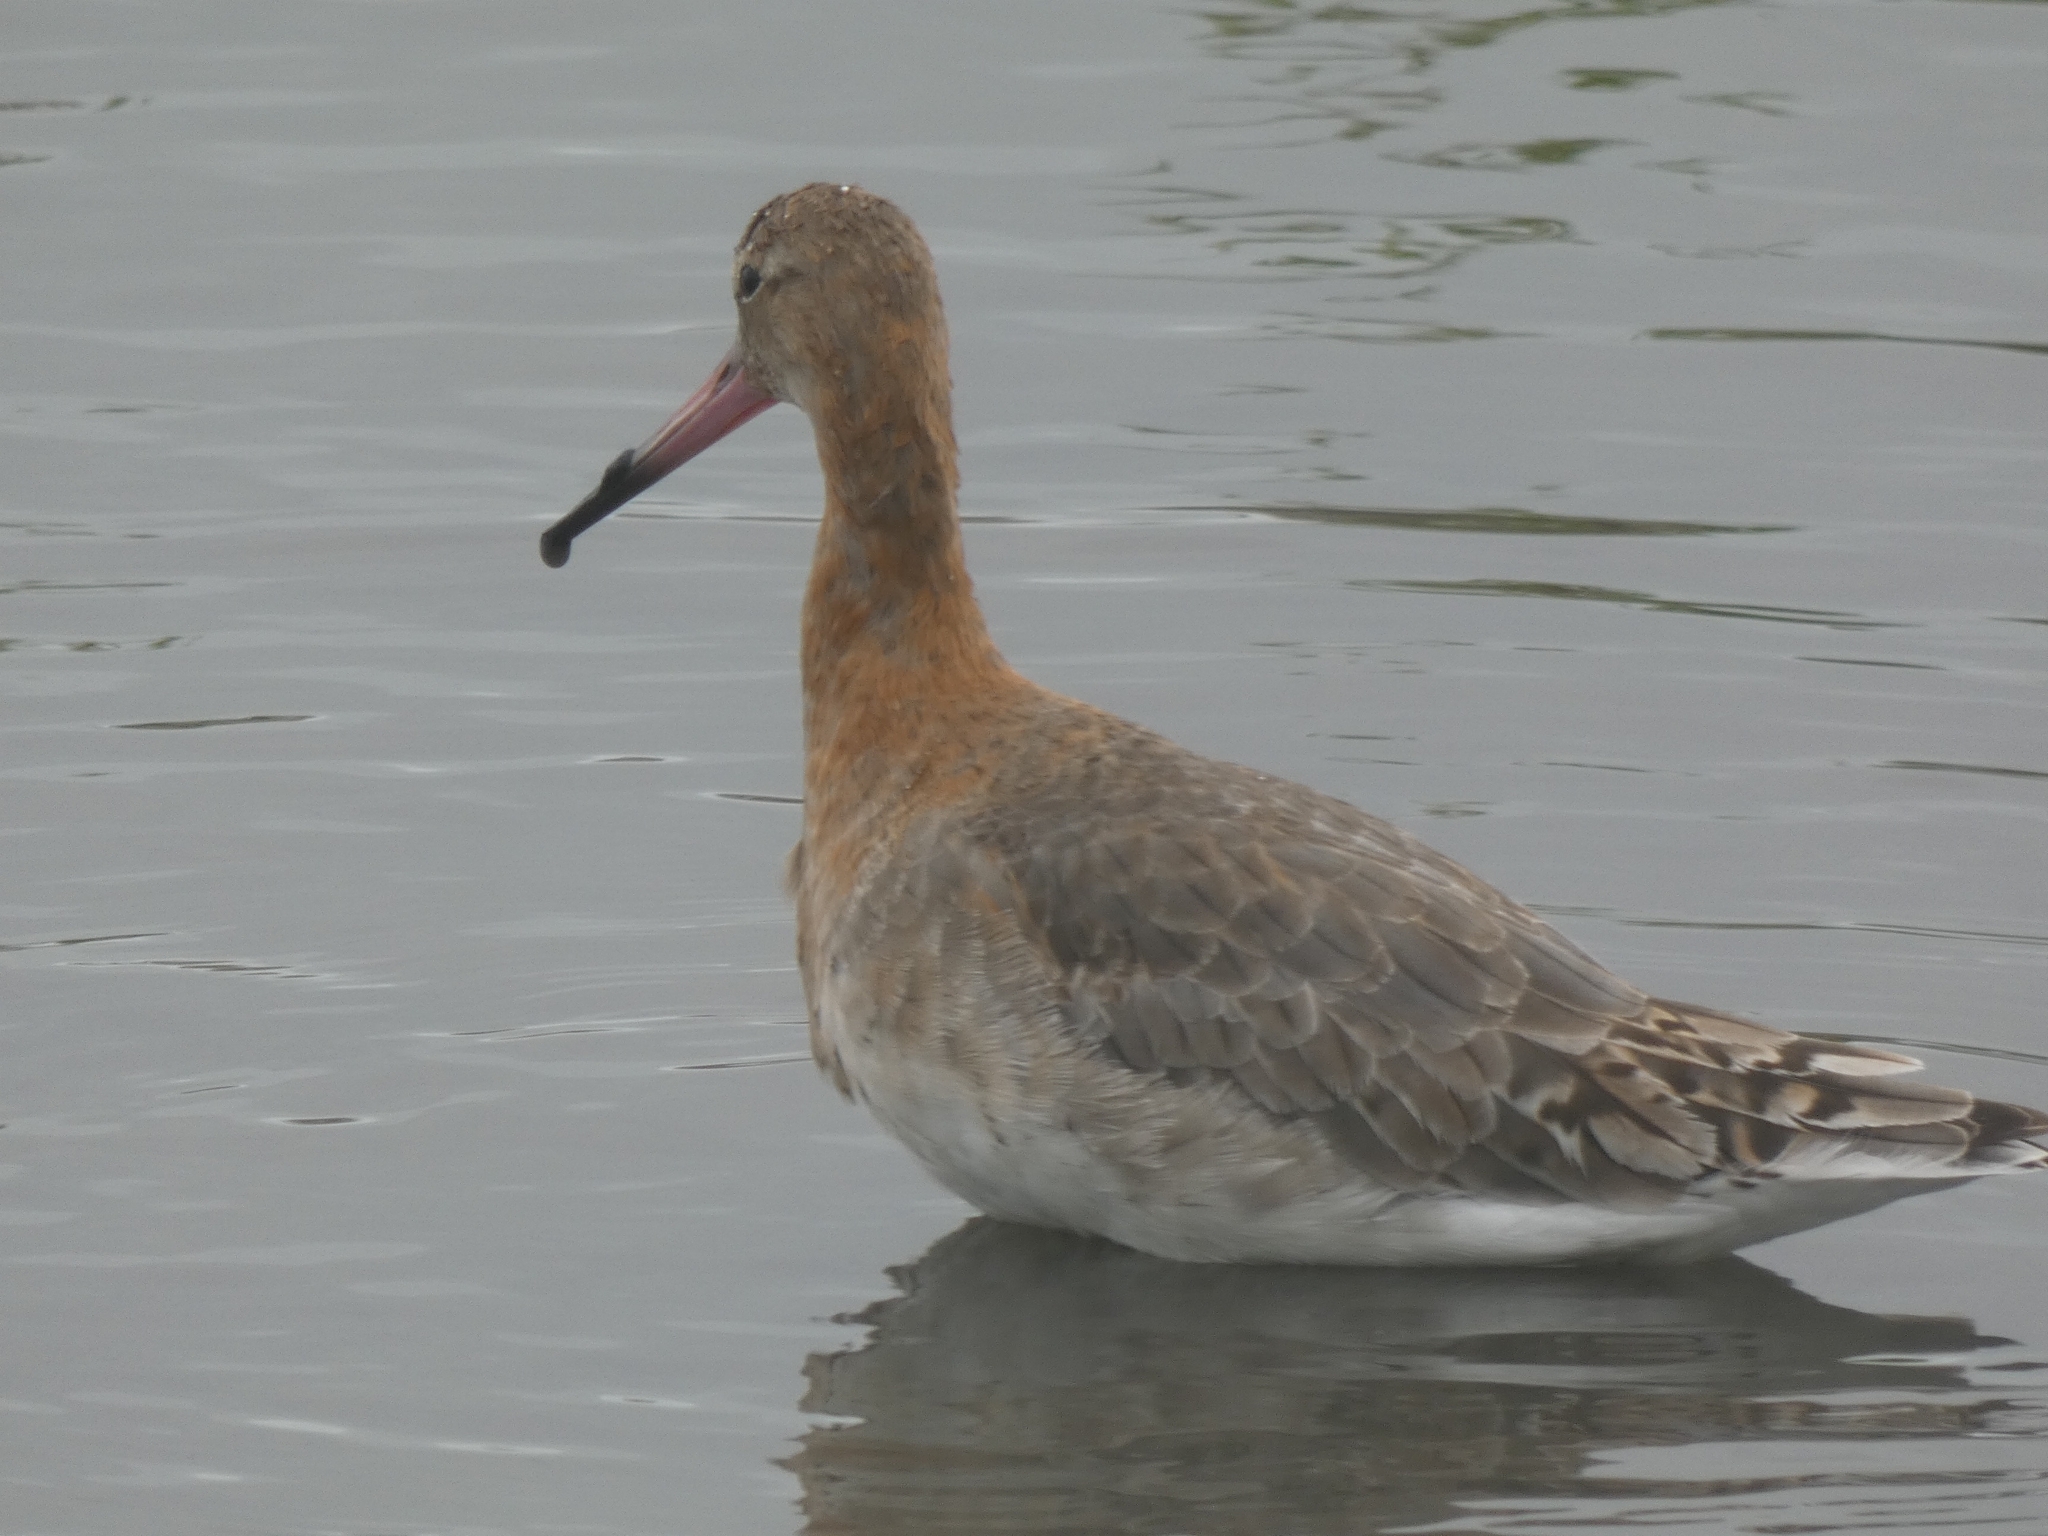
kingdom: Animalia
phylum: Chordata
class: Aves
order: Charadriiformes
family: Scolopacidae
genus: Limosa
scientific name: Limosa limosa
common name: Black-tailed godwit
